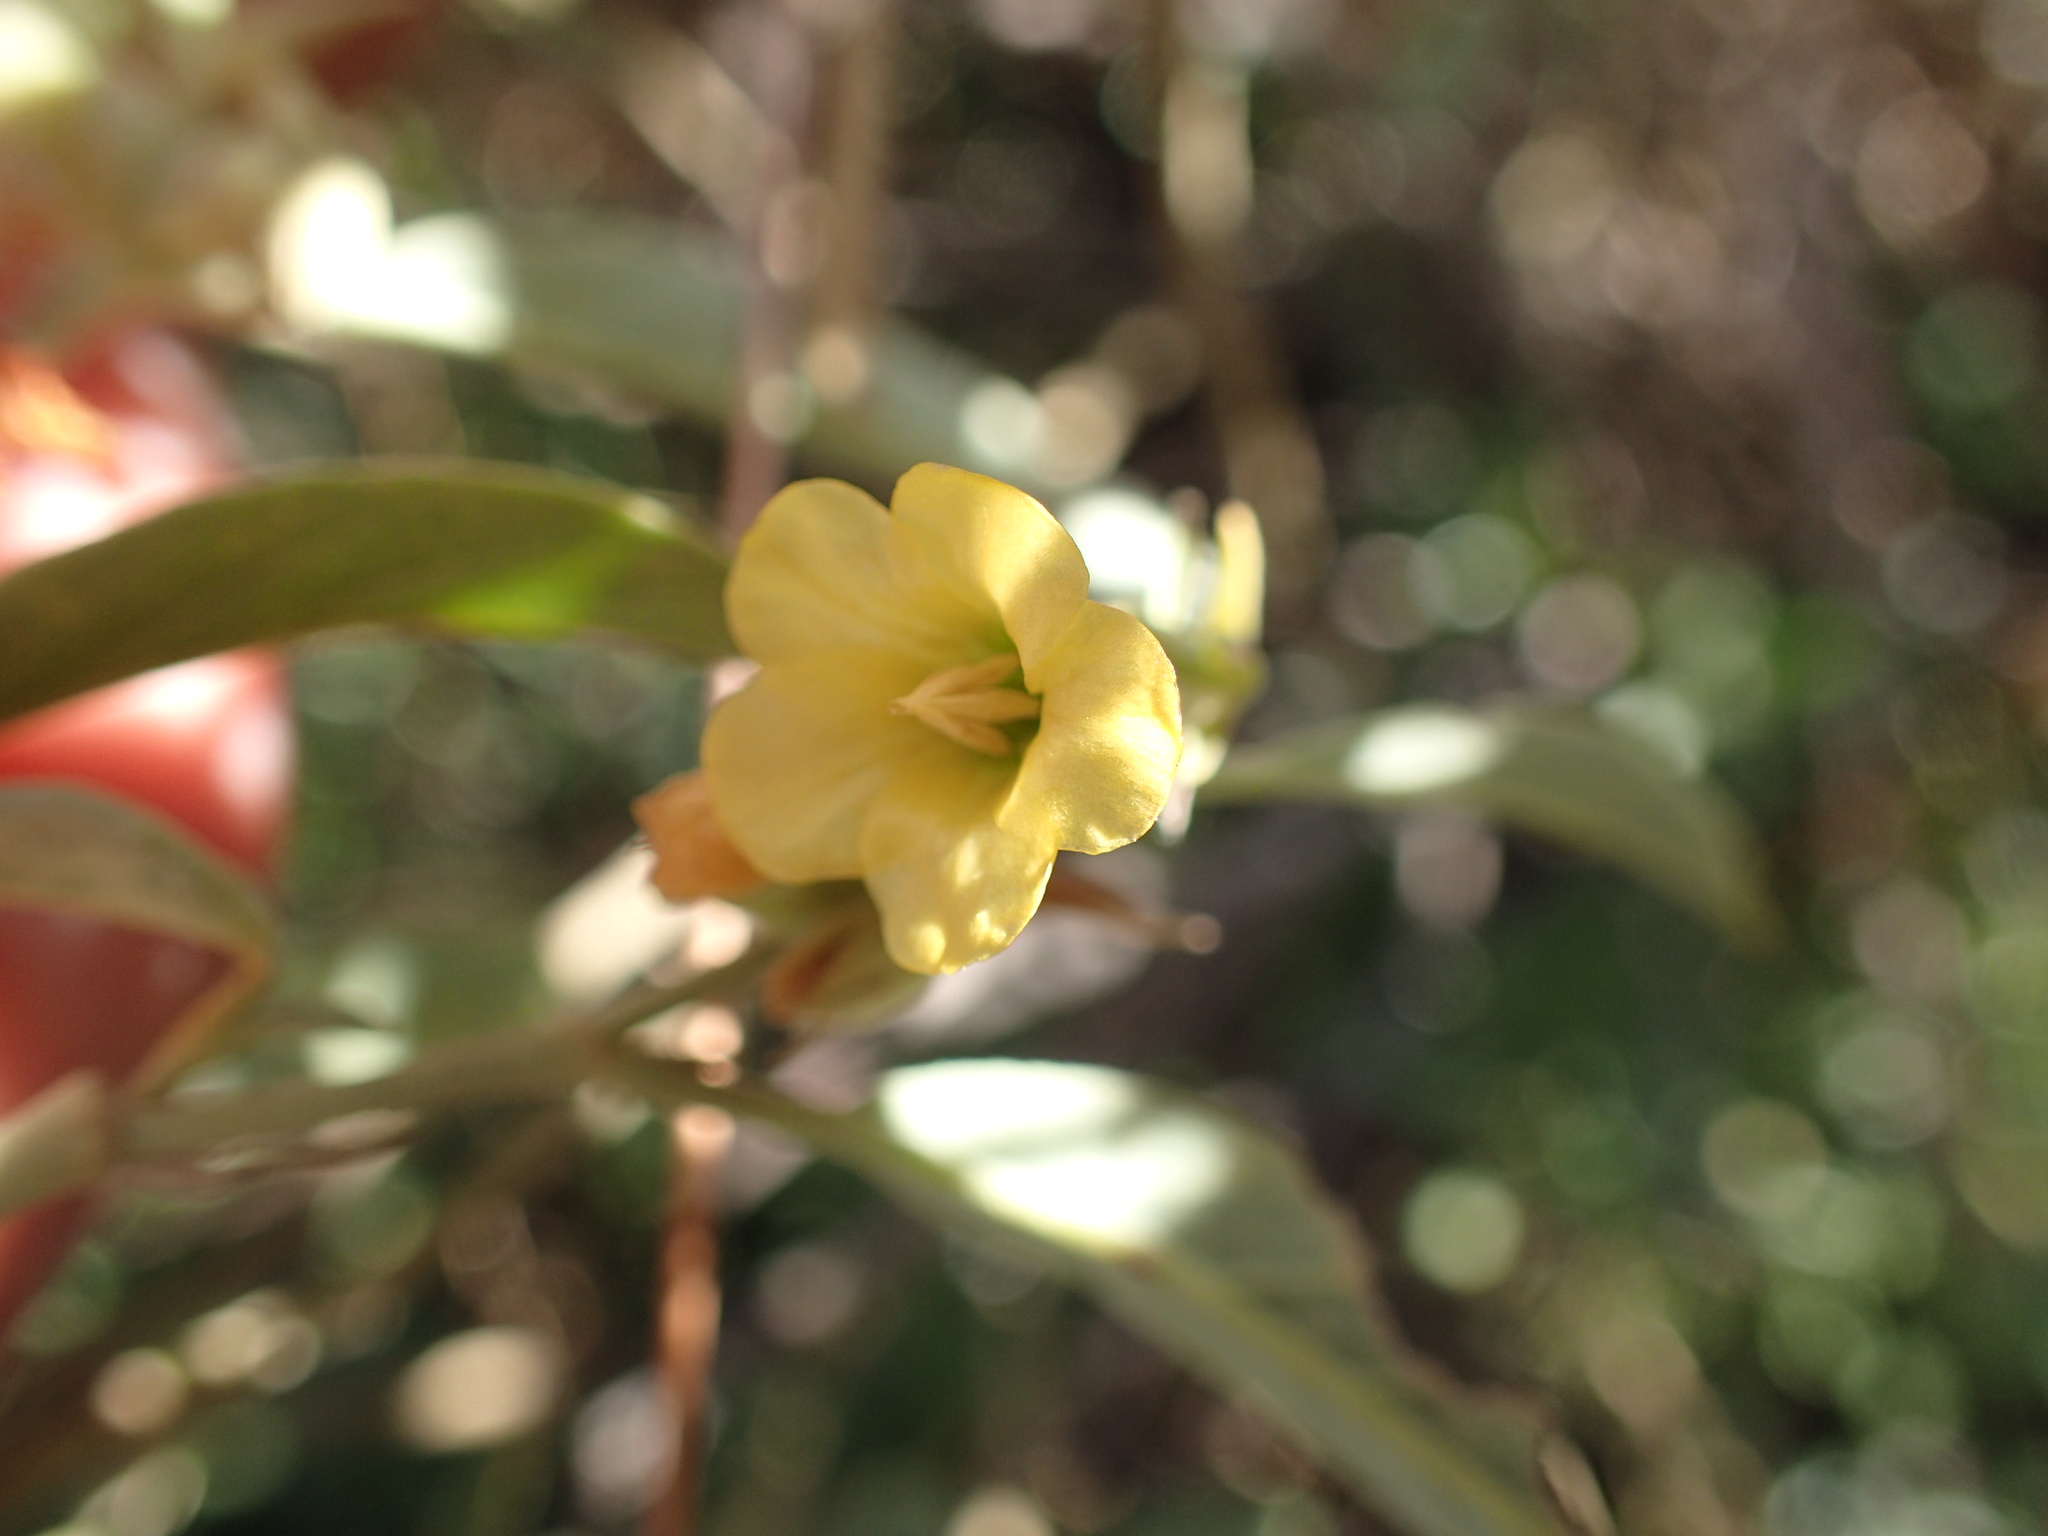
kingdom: Plantae
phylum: Tracheophyta
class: Magnoliopsida
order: Malvales
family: Malvaceae
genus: Hermannia
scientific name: Hermannia lancifolia
